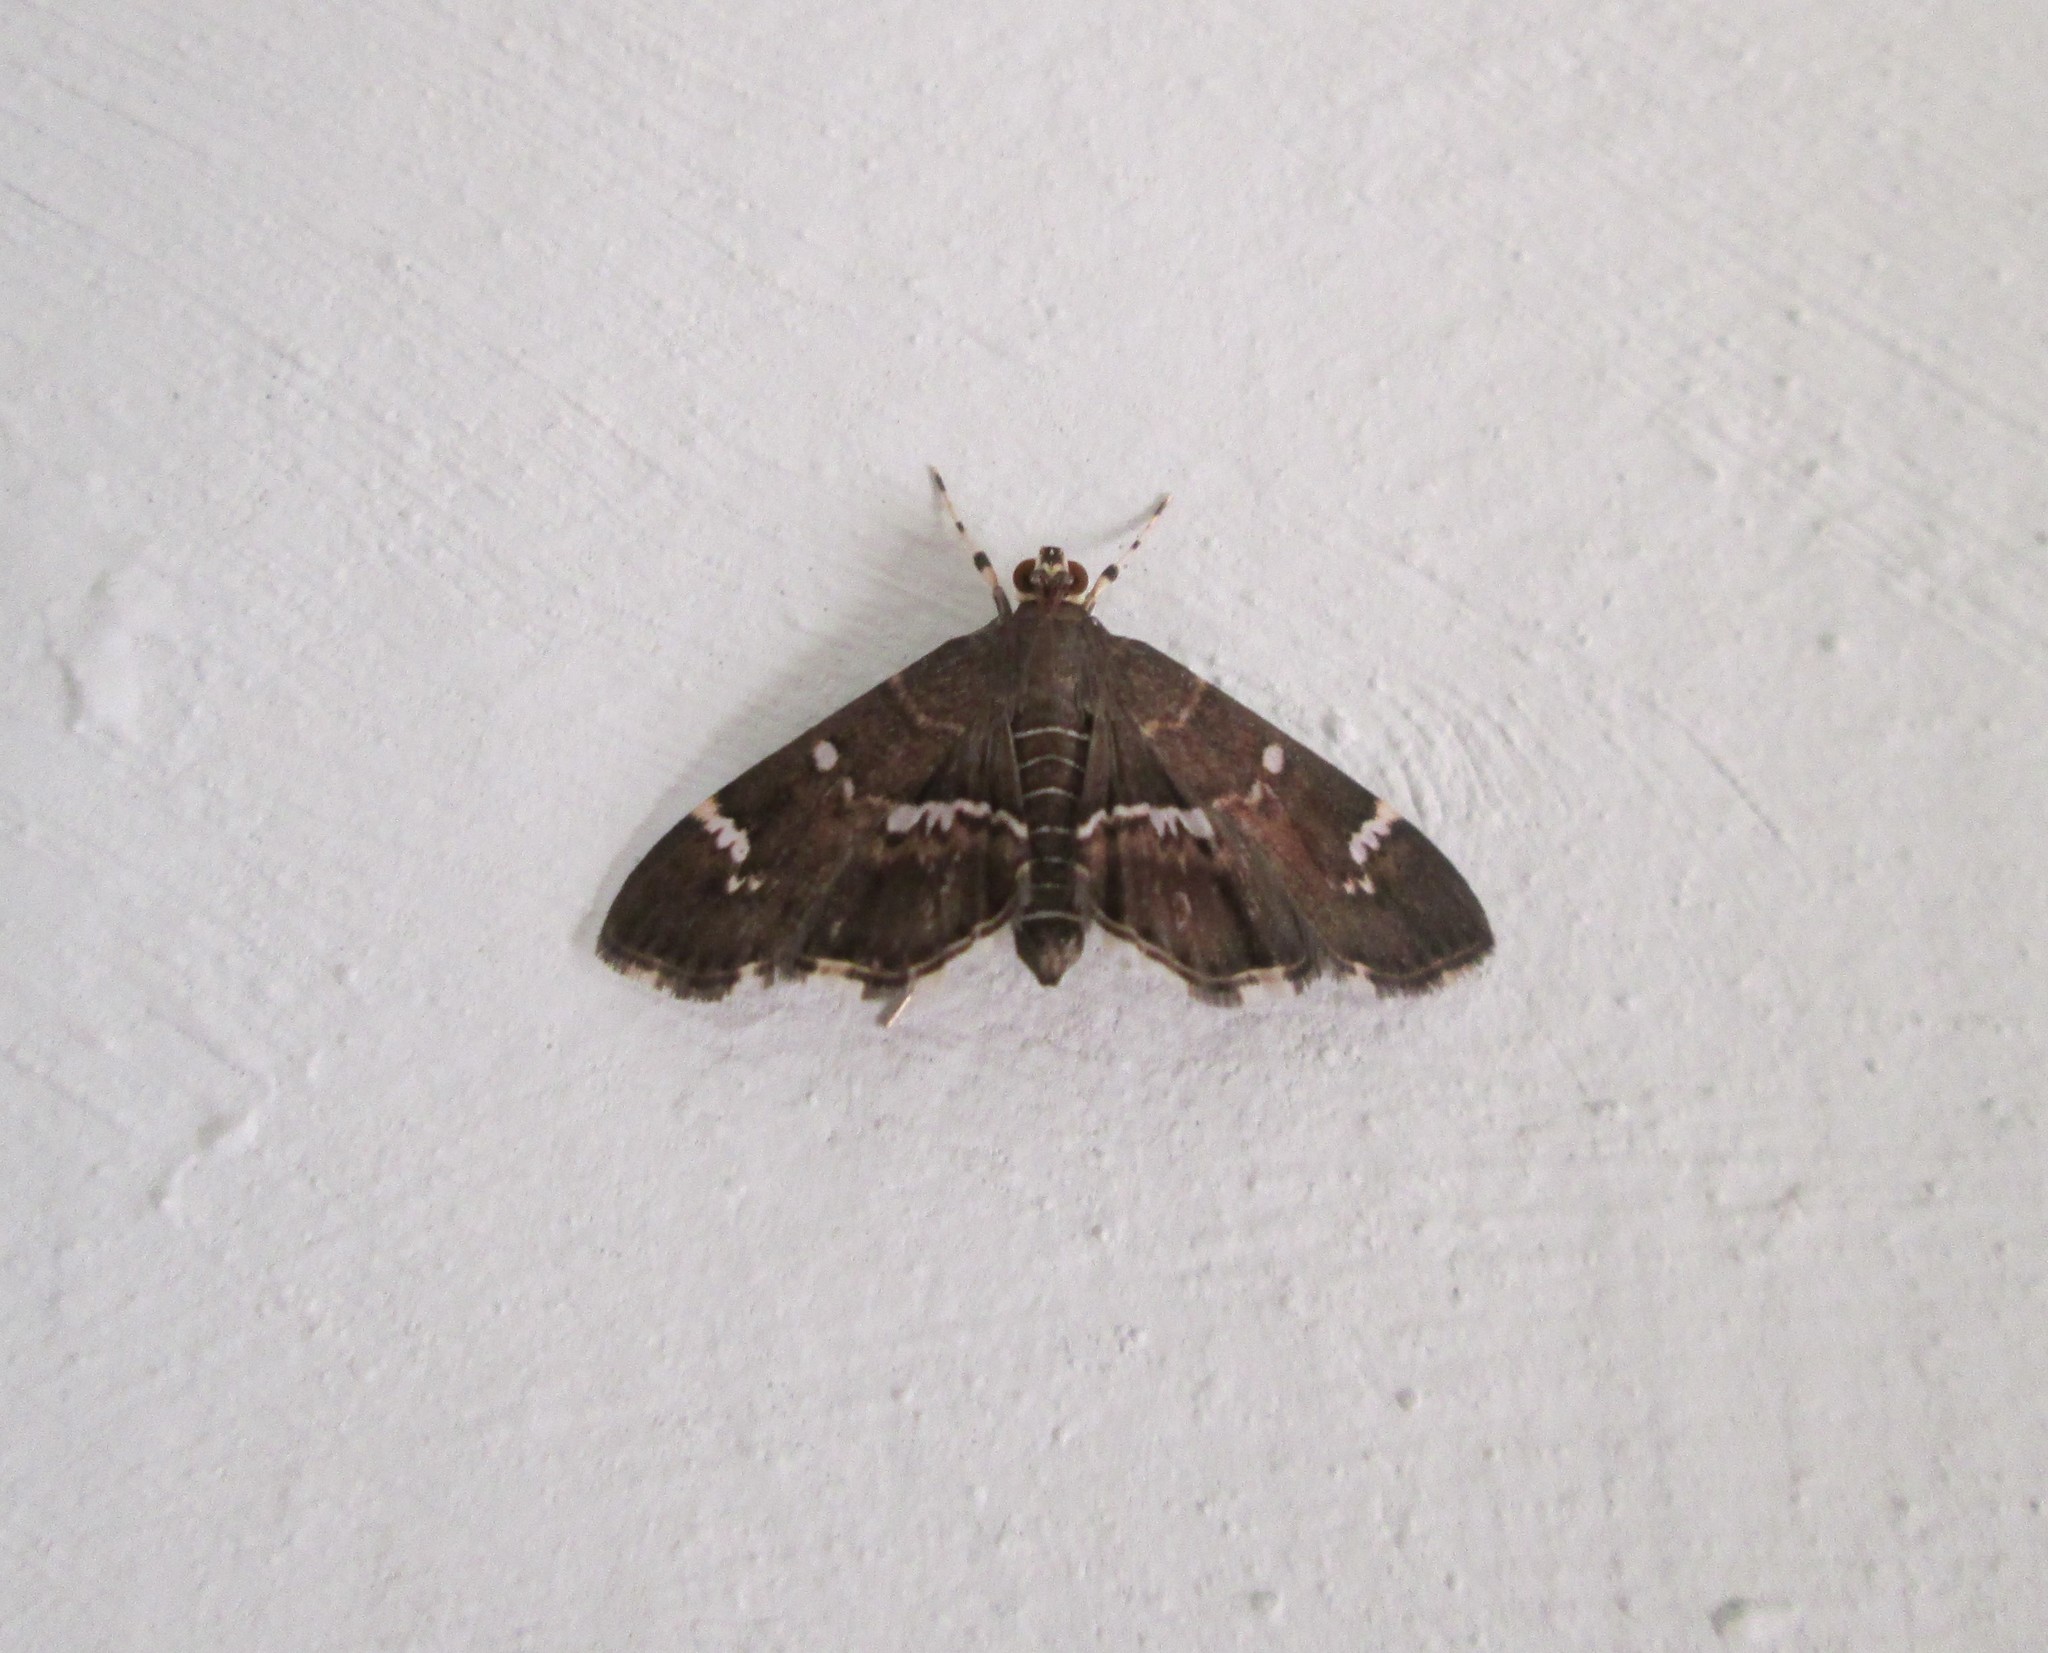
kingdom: Animalia
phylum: Arthropoda
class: Insecta
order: Lepidoptera
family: Crambidae
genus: Hymenia
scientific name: Hymenia perspectalis
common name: Spotted beet webworm
